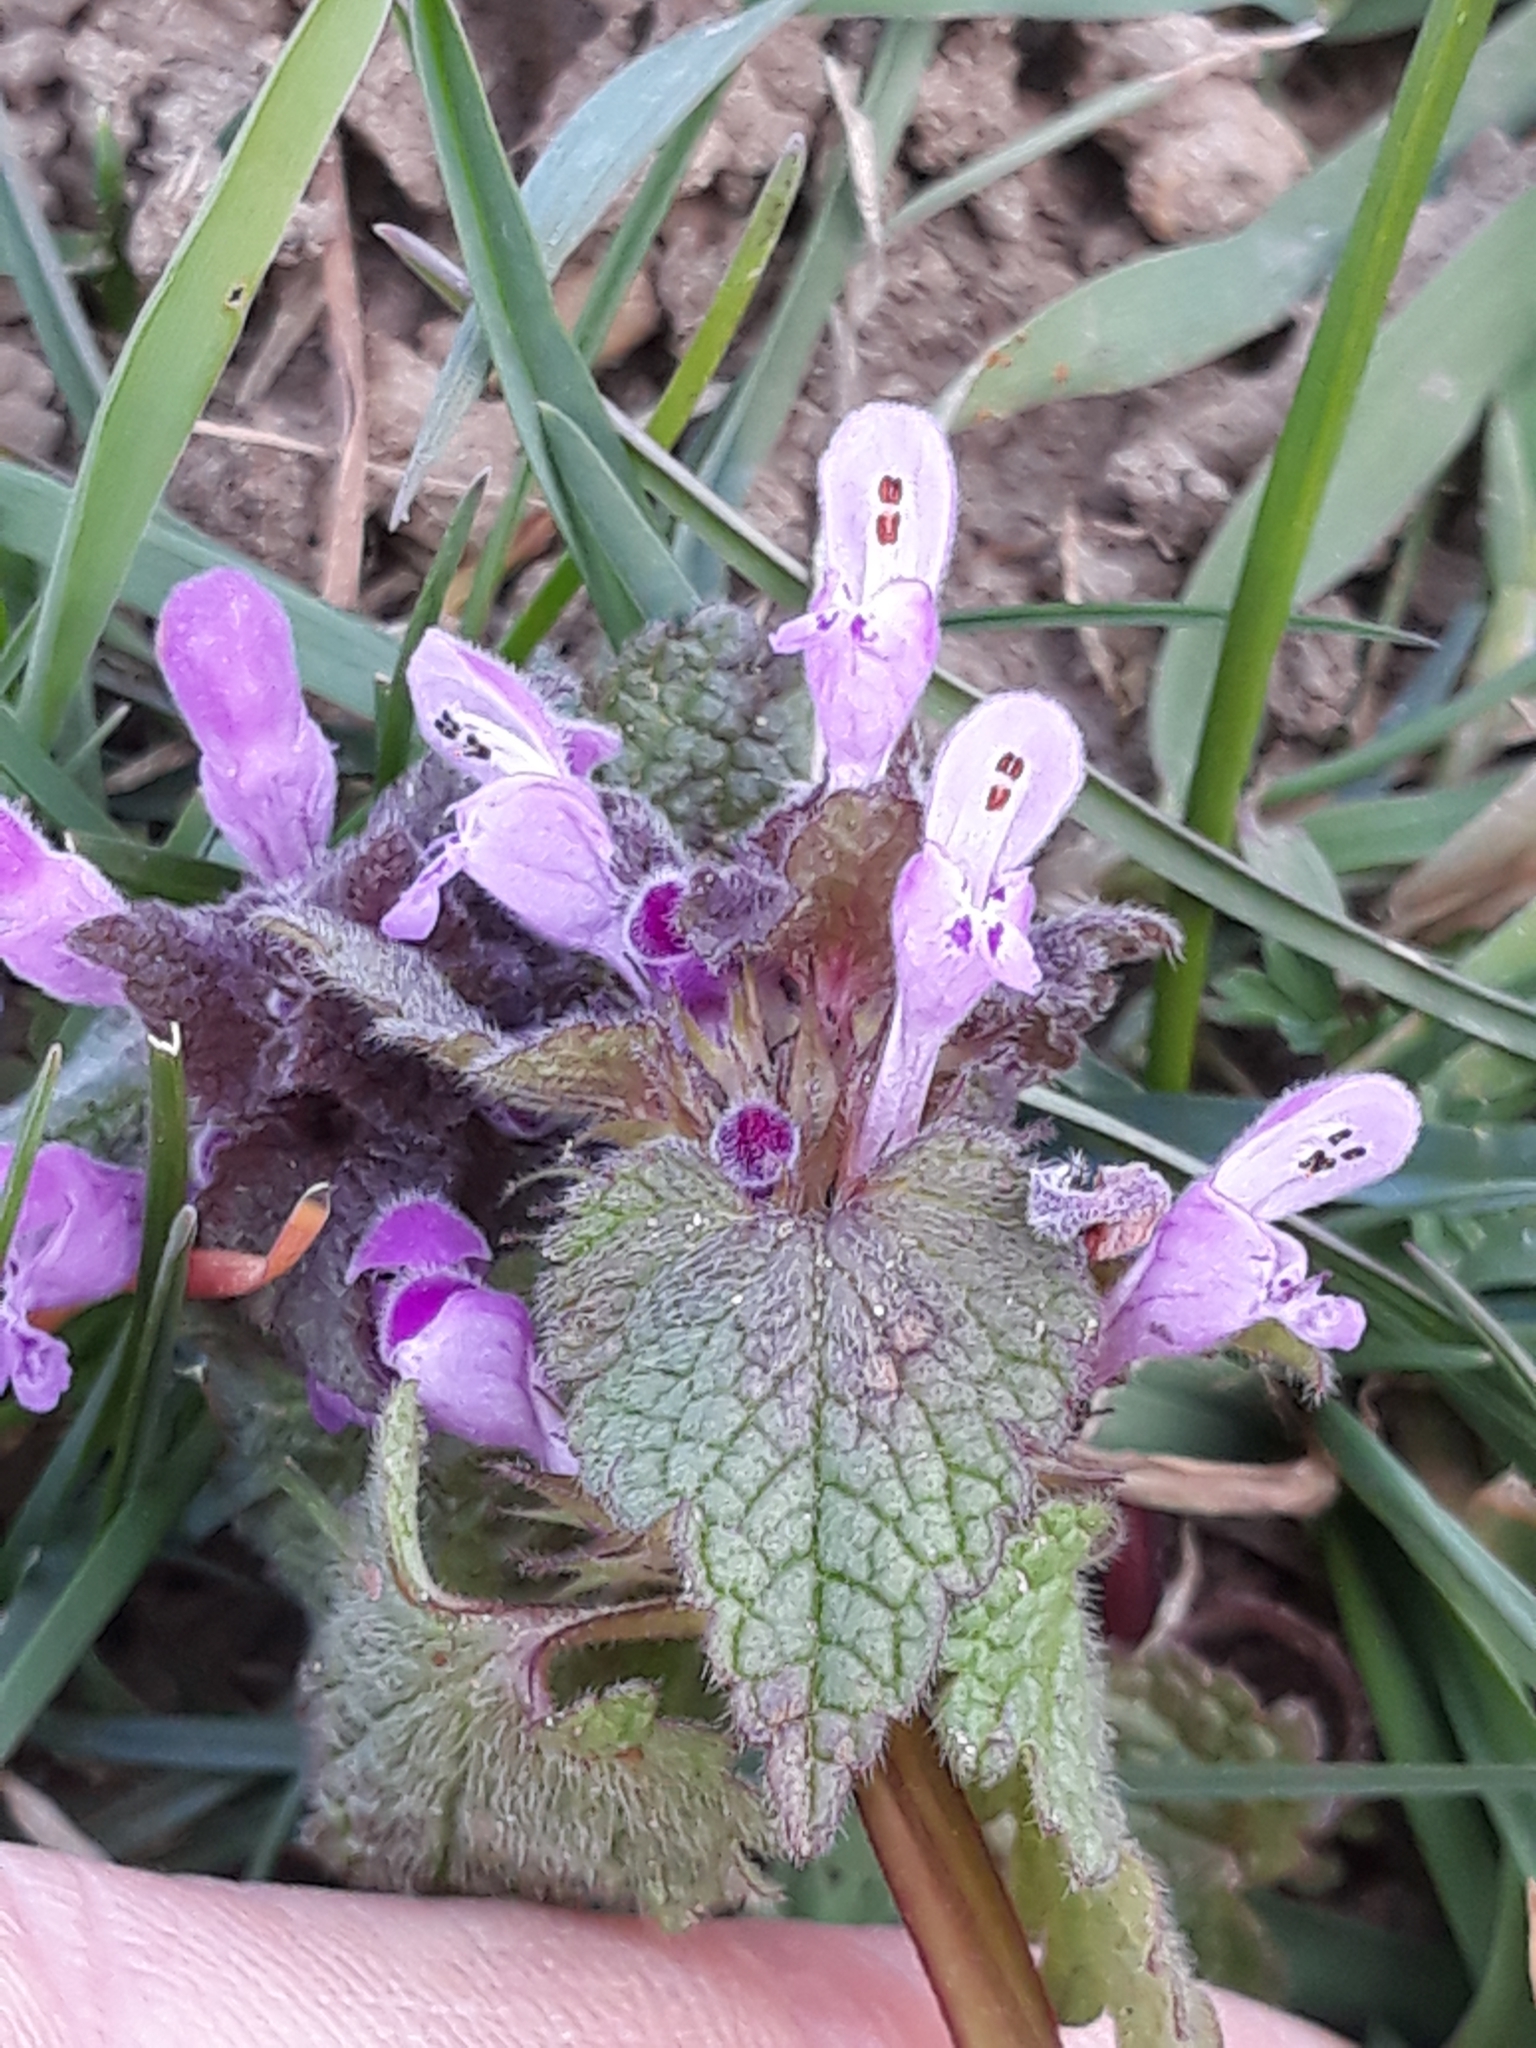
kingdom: Plantae
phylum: Tracheophyta
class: Magnoliopsida
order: Lamiales
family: Lamiaceae
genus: Lamium
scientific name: Lamium purpureum
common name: Red dead-nettle
